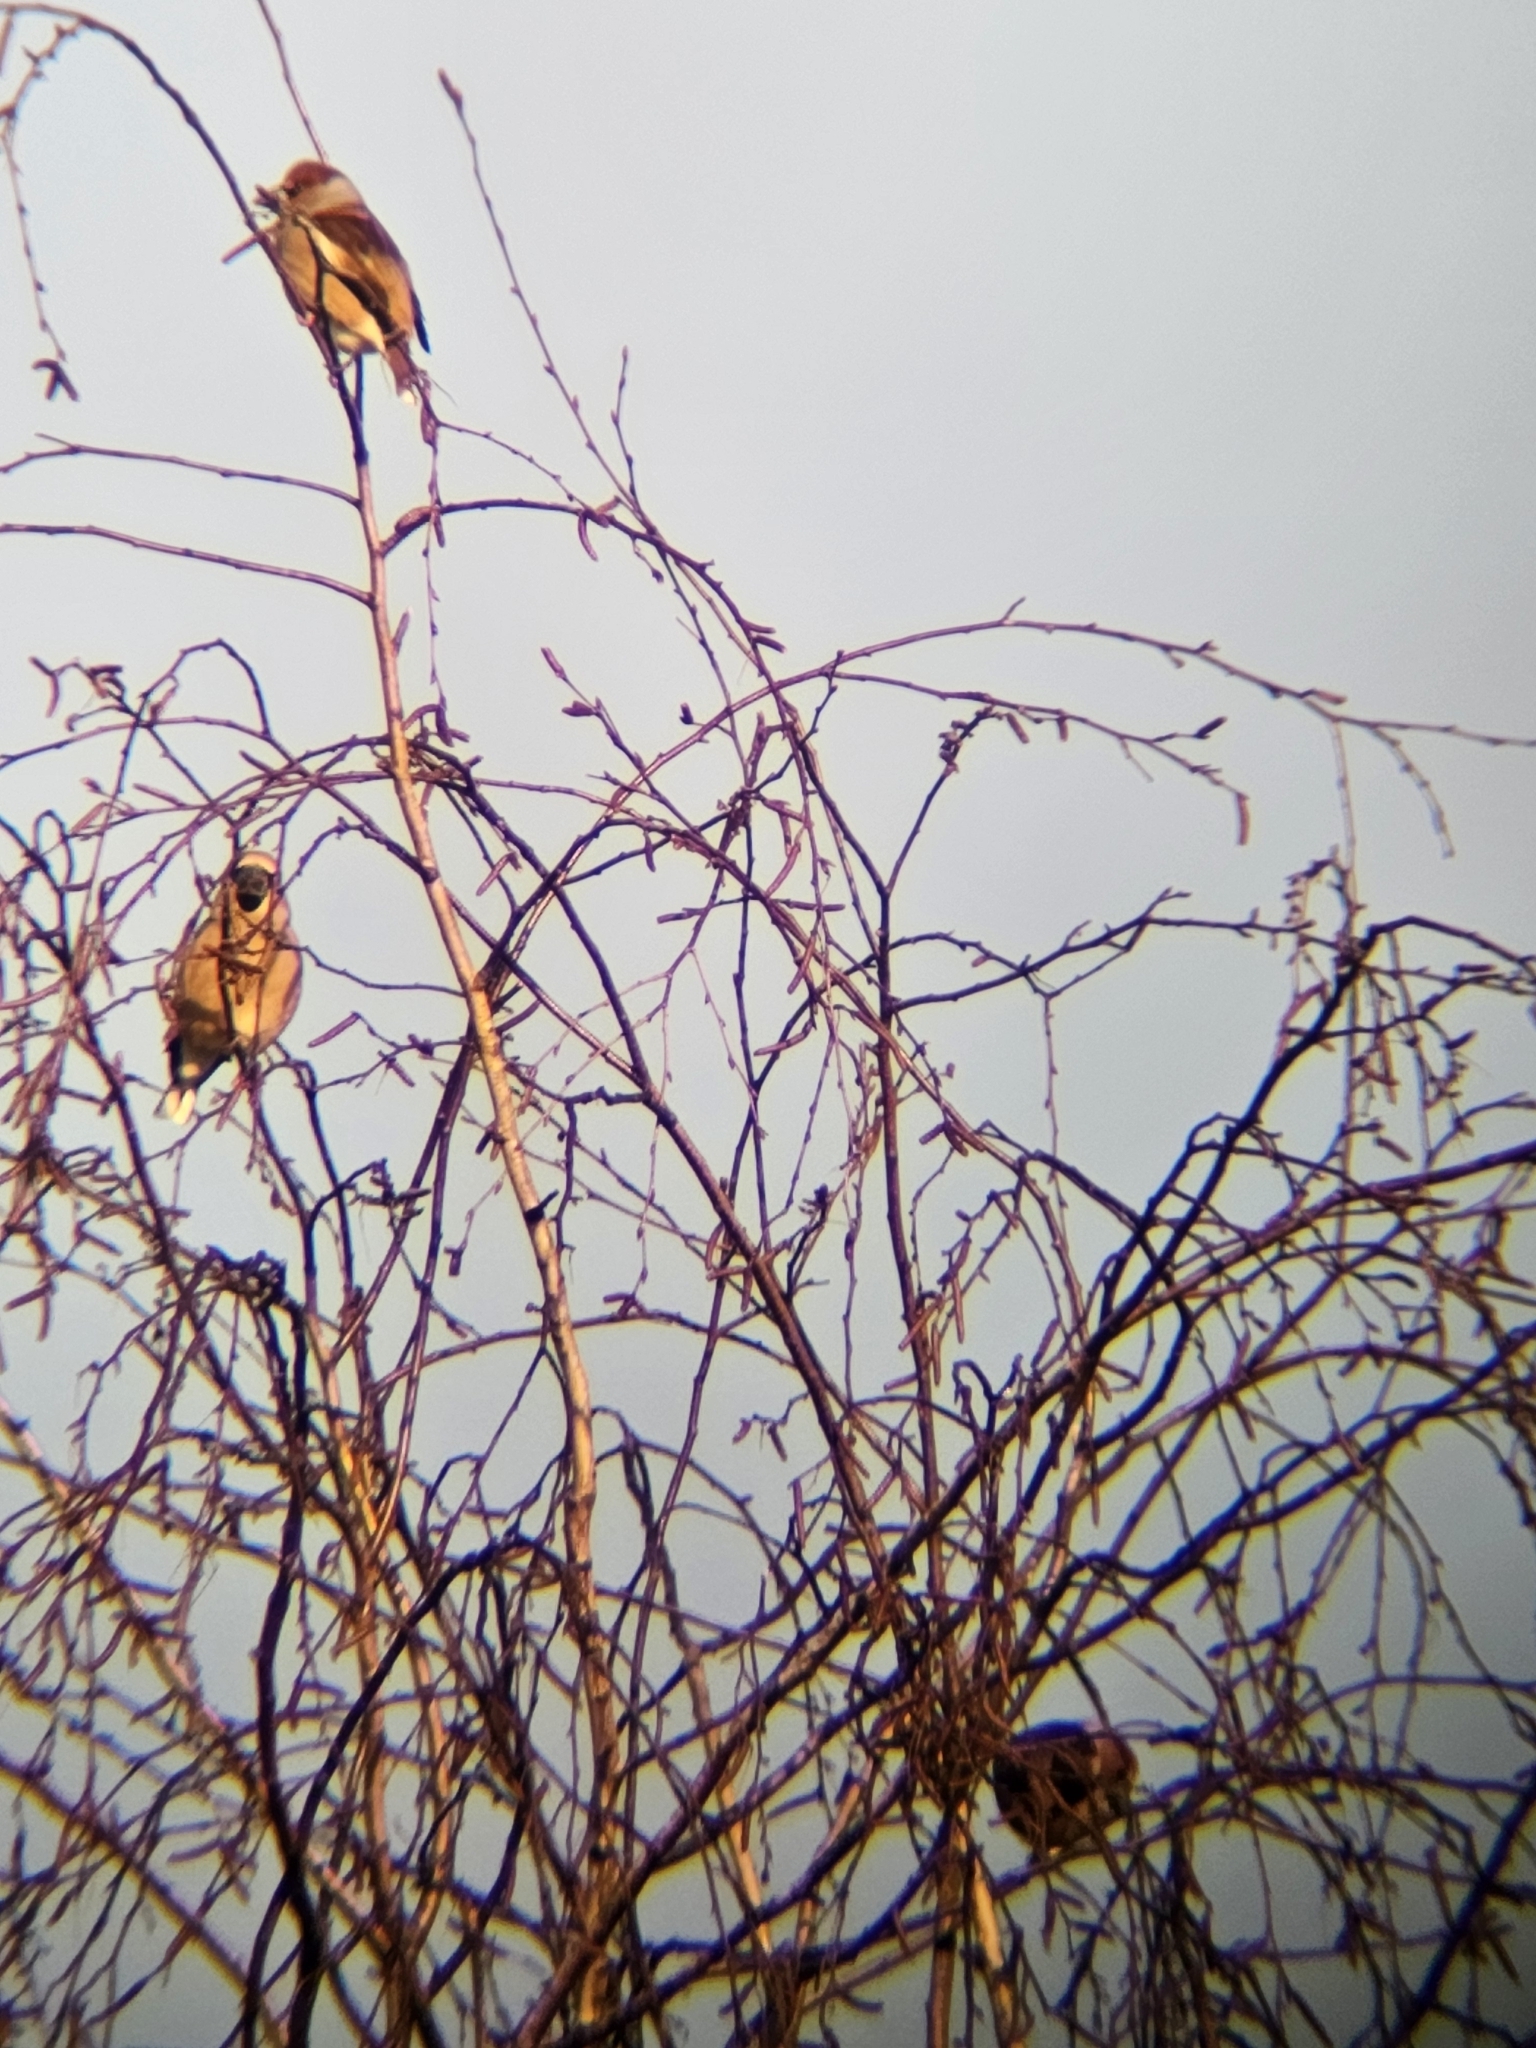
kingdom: Animalia
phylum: Chordata
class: Aves
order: Passeriformes
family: Fringillidae
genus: Coccothraustes
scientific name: Coccothraustes coccothraustes
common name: Hawfinch
